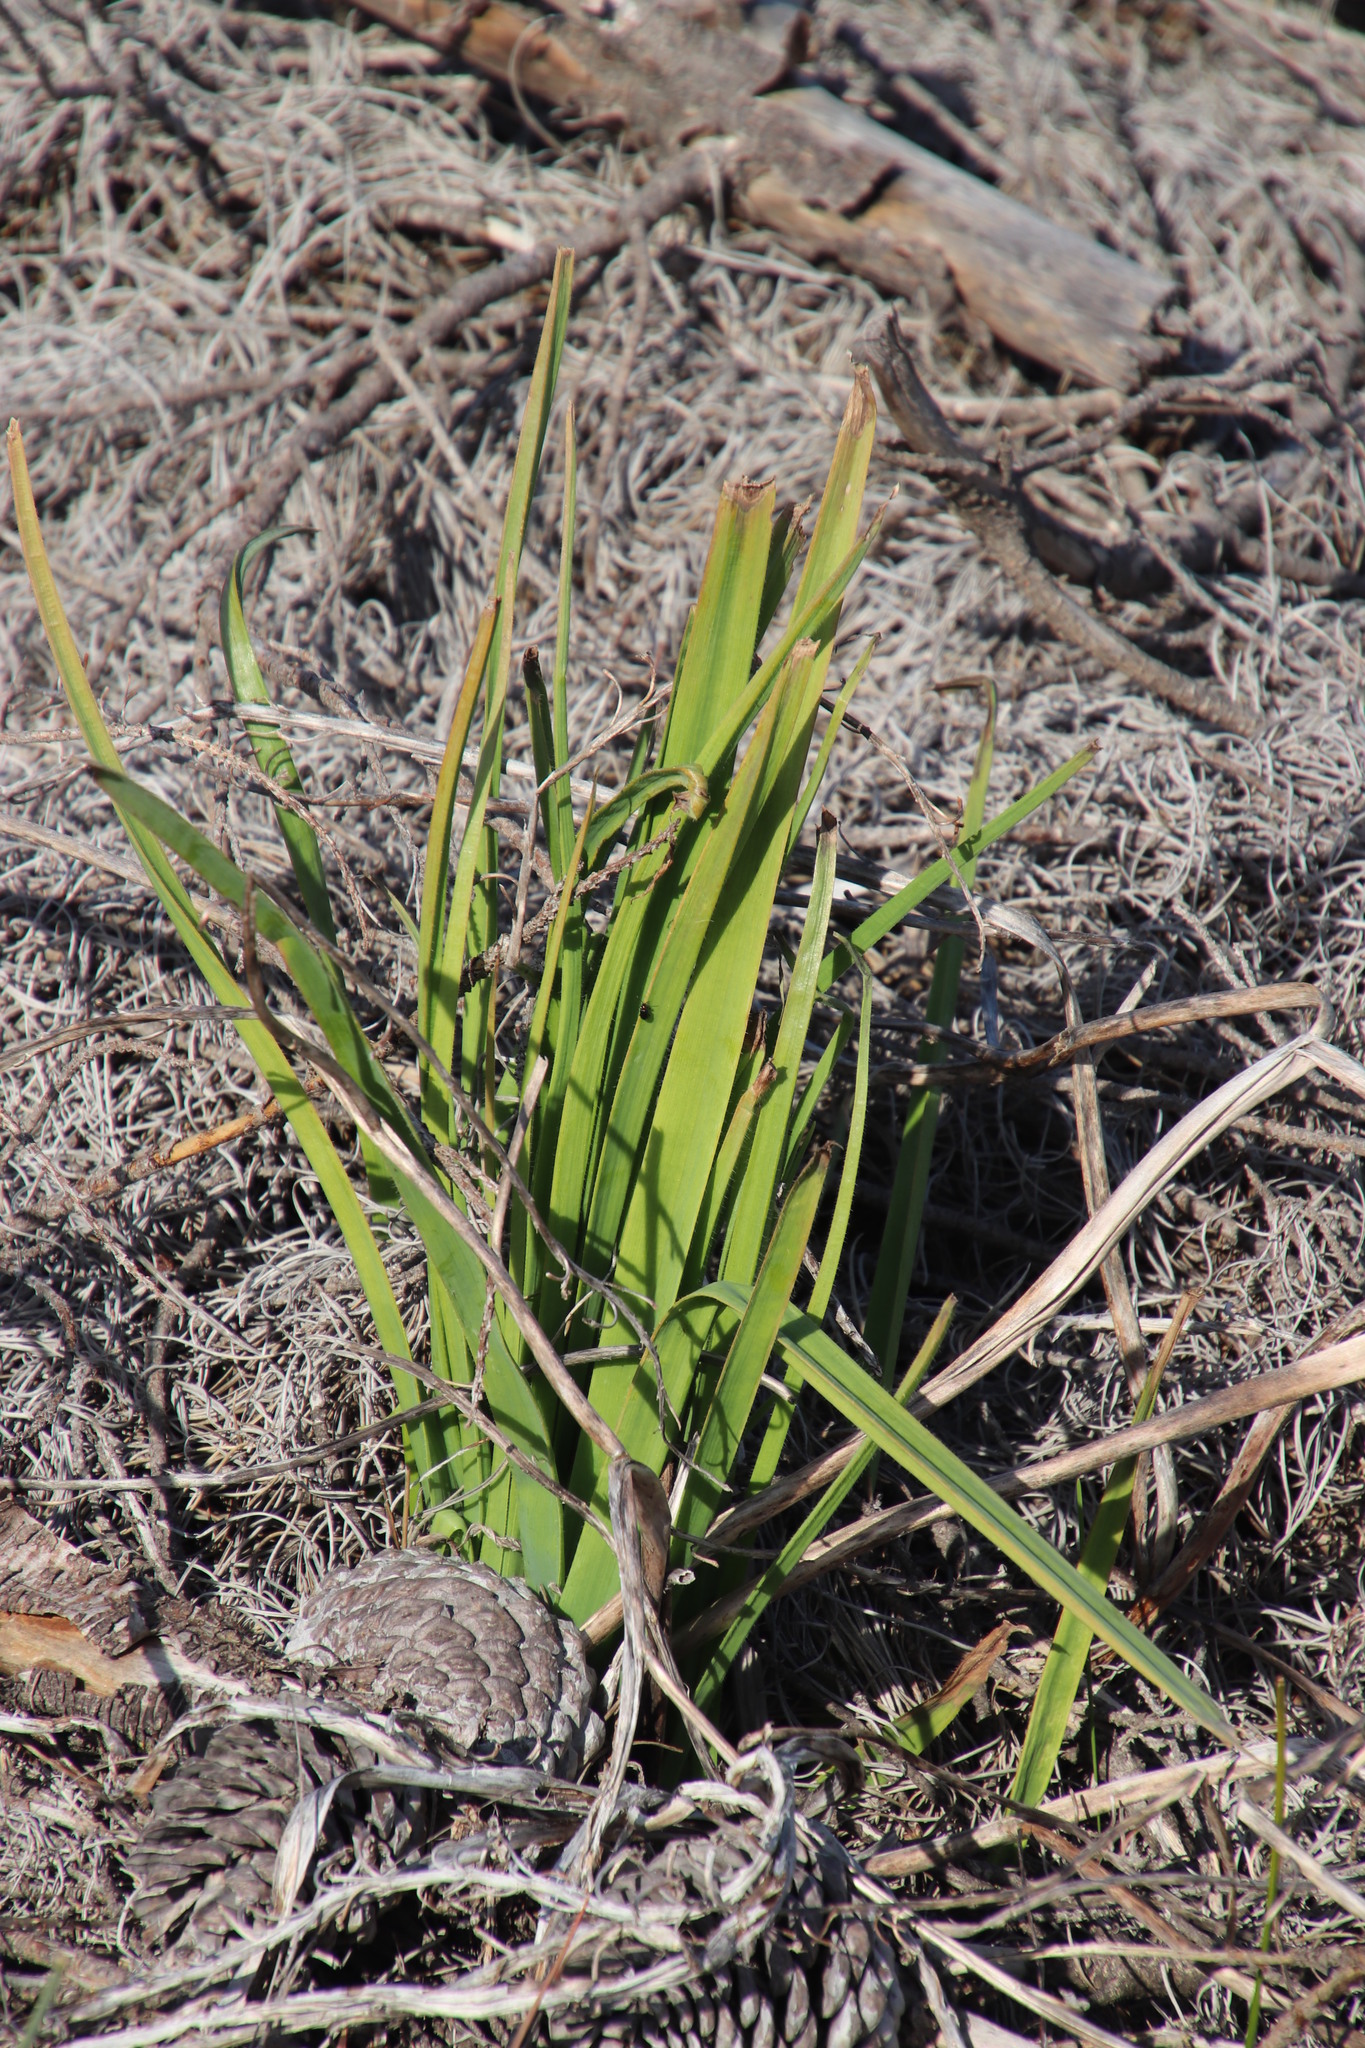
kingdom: Plantae
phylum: Tracheophyta
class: Liliopsida
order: Asparagales
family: Asphodelaceae
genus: Trachyandra
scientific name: Trachyandra ciliata
